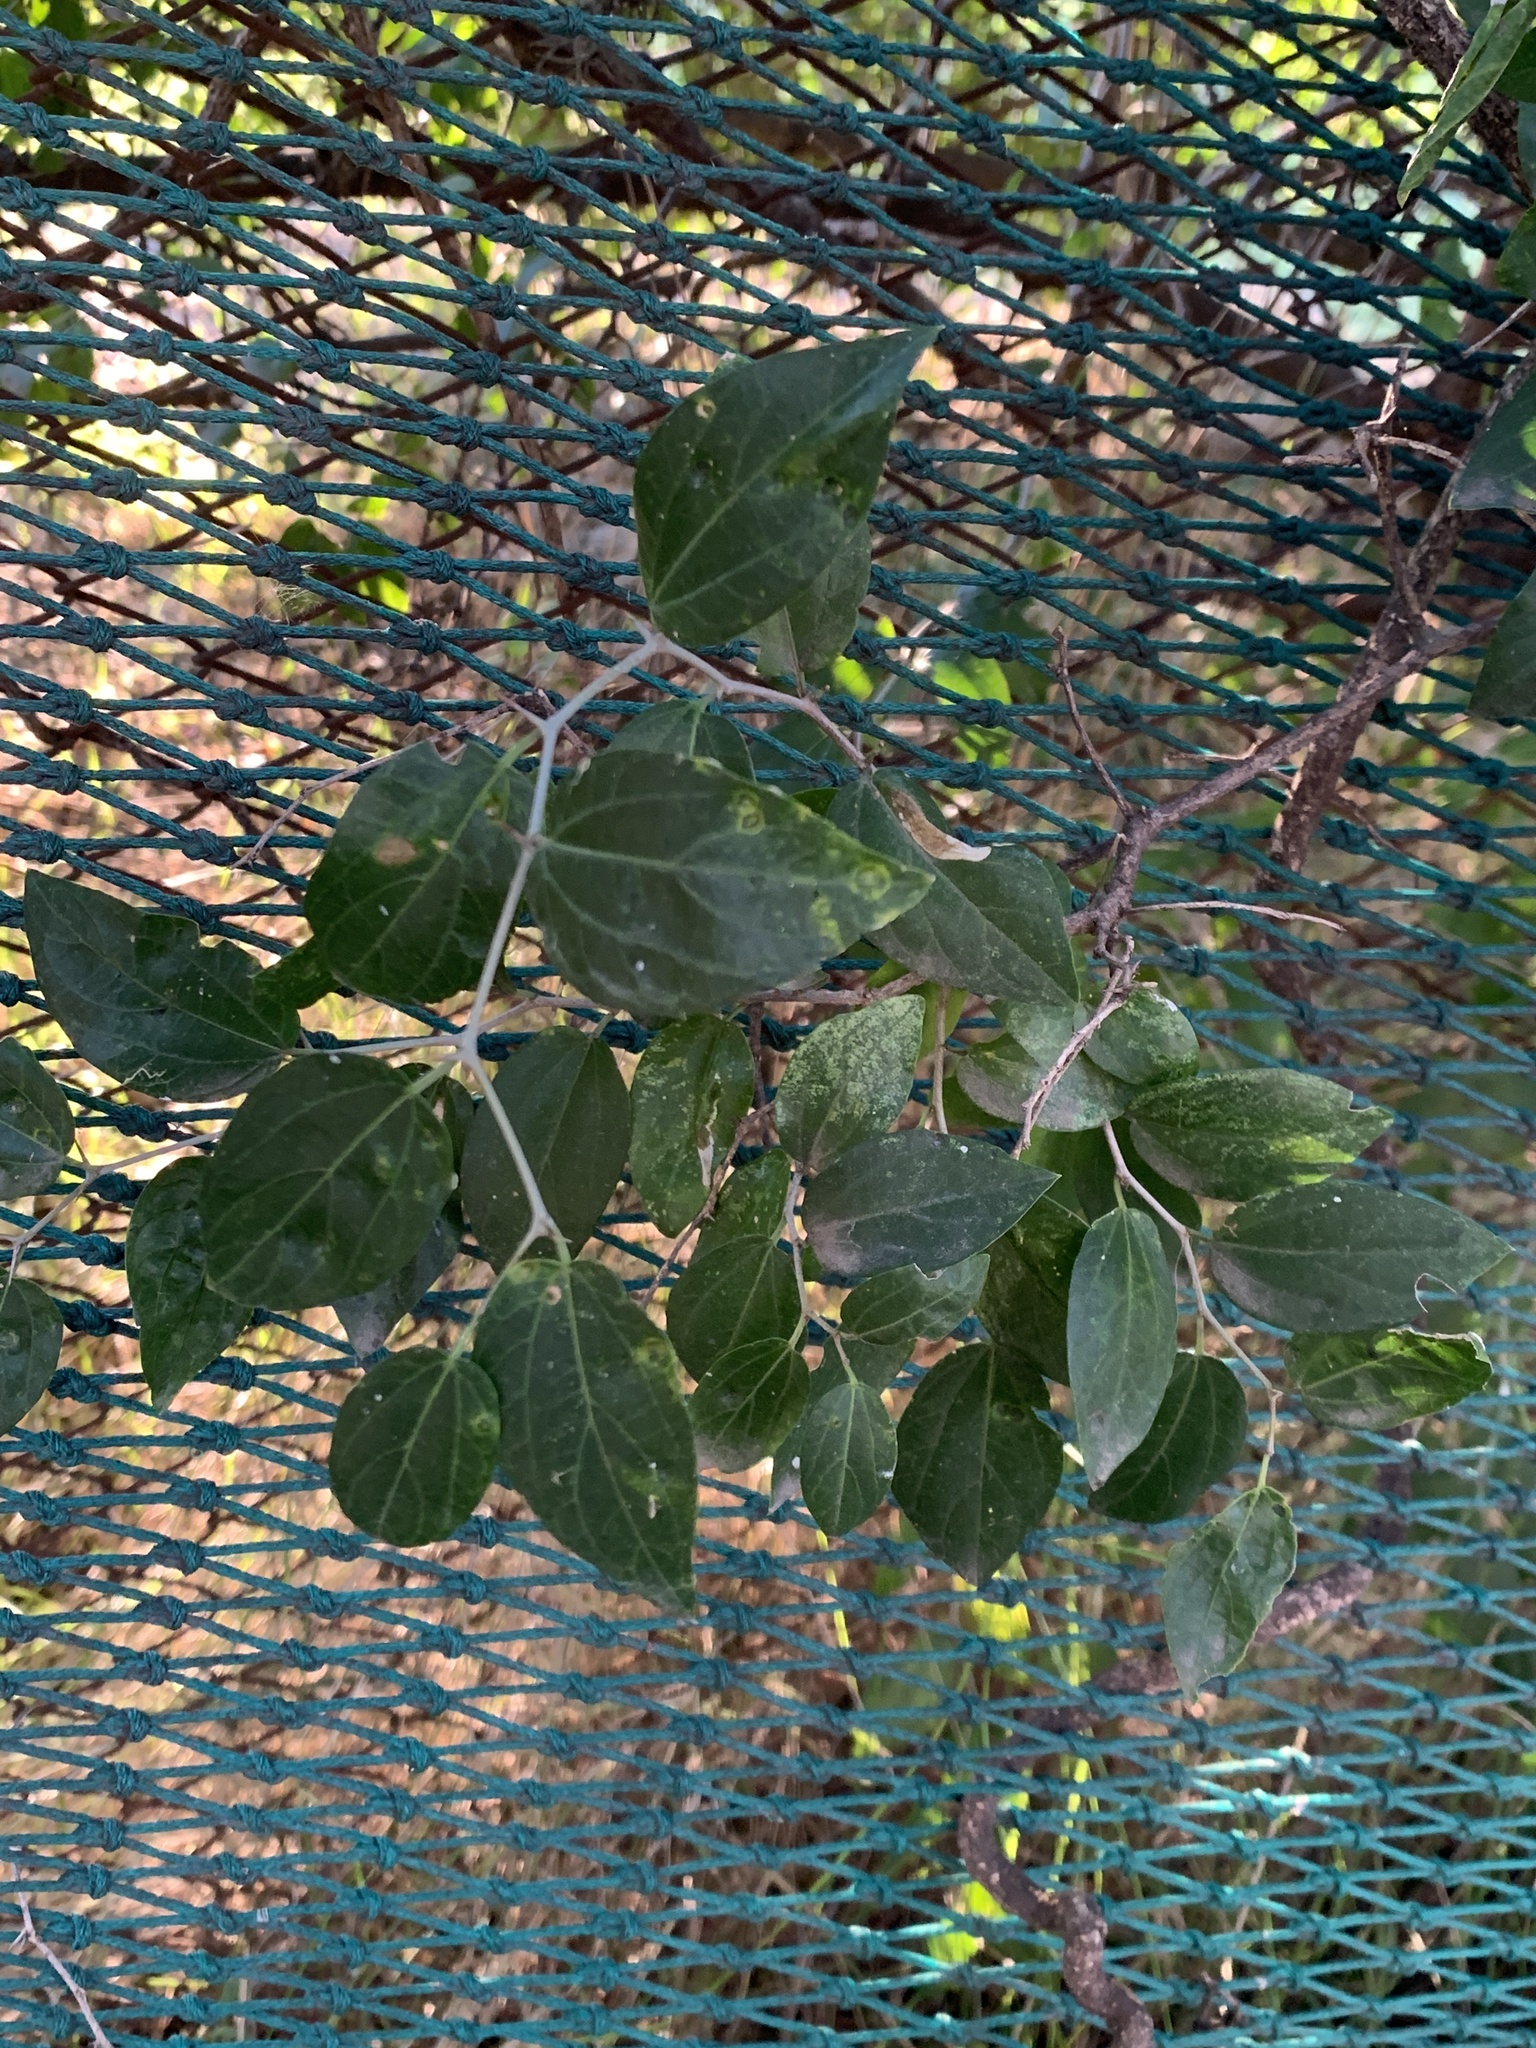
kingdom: Plantae
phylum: Tracheophyta
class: Magnoliopsida
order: Rosales
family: Cannabaceae
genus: Celtis
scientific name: Celtis tala
